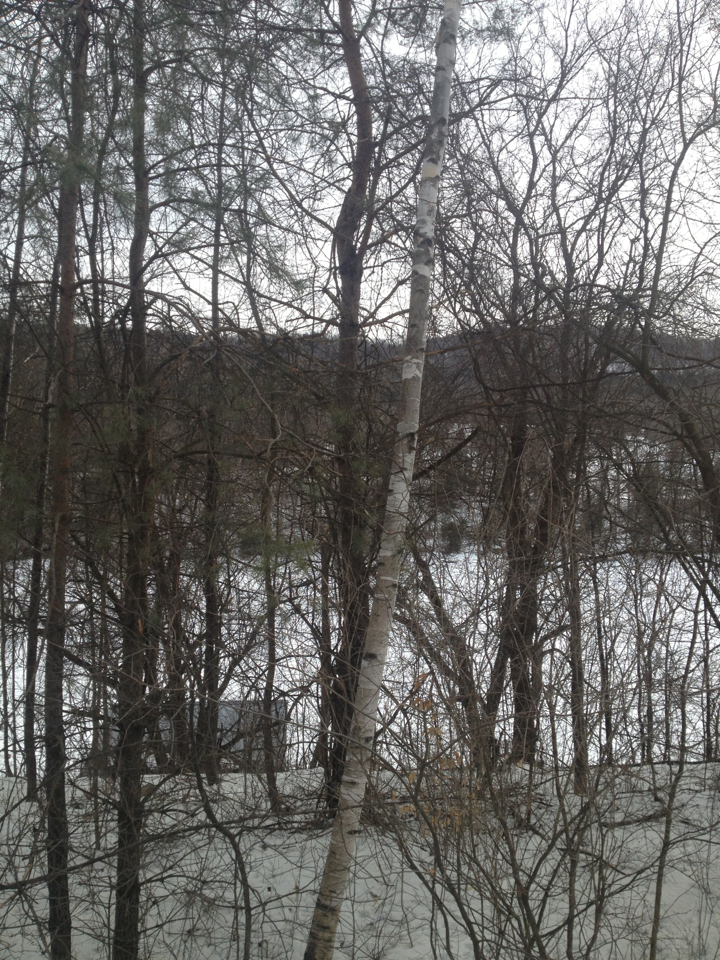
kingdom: Plantae
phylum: Tracheophyta
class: Magnoliopsida
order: Fagales
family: Betulaceae
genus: Betula
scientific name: Betula papyrifera
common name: Paper birch
